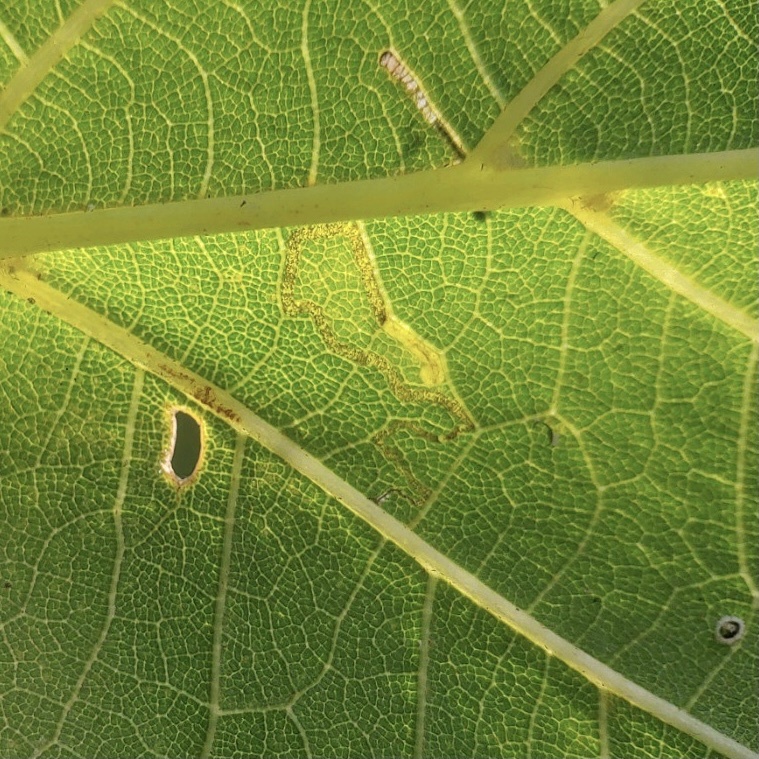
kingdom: Animalia
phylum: Arthropoda
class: Insecta
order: Lepidoptera
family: Nepticulidae
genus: Stigmella
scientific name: Stigmella argentifasciella
